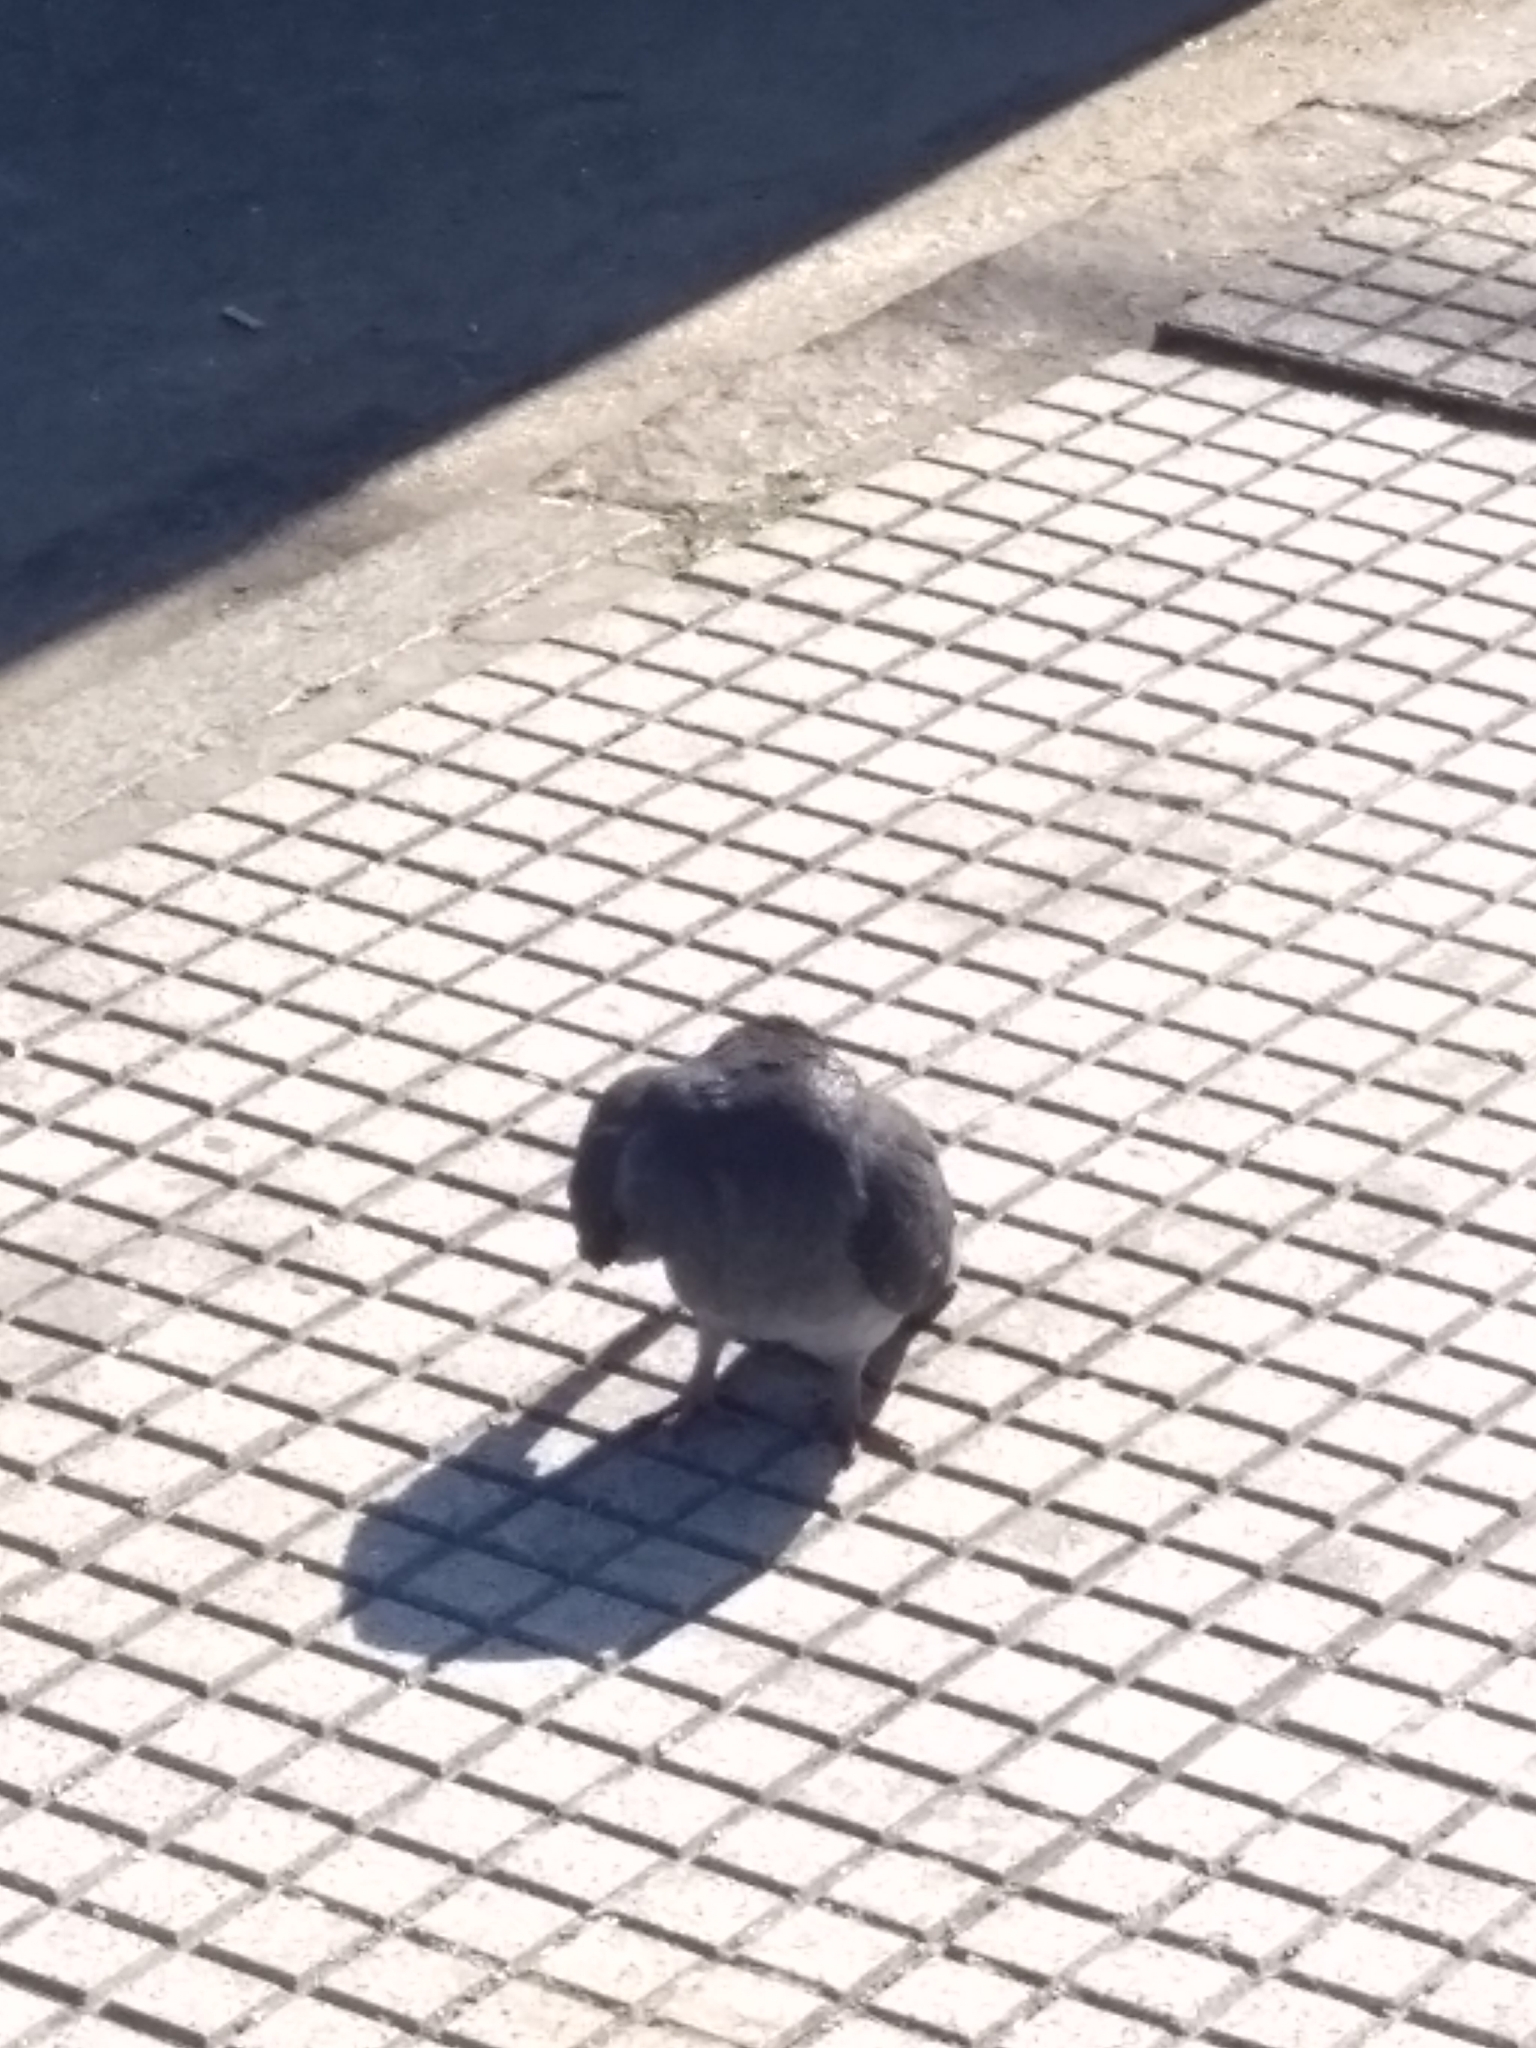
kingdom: Animalia
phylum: Chordata
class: Aves
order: Columbiformes
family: Columbidae
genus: Columba
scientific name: Columba livia
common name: Rock pigeon
